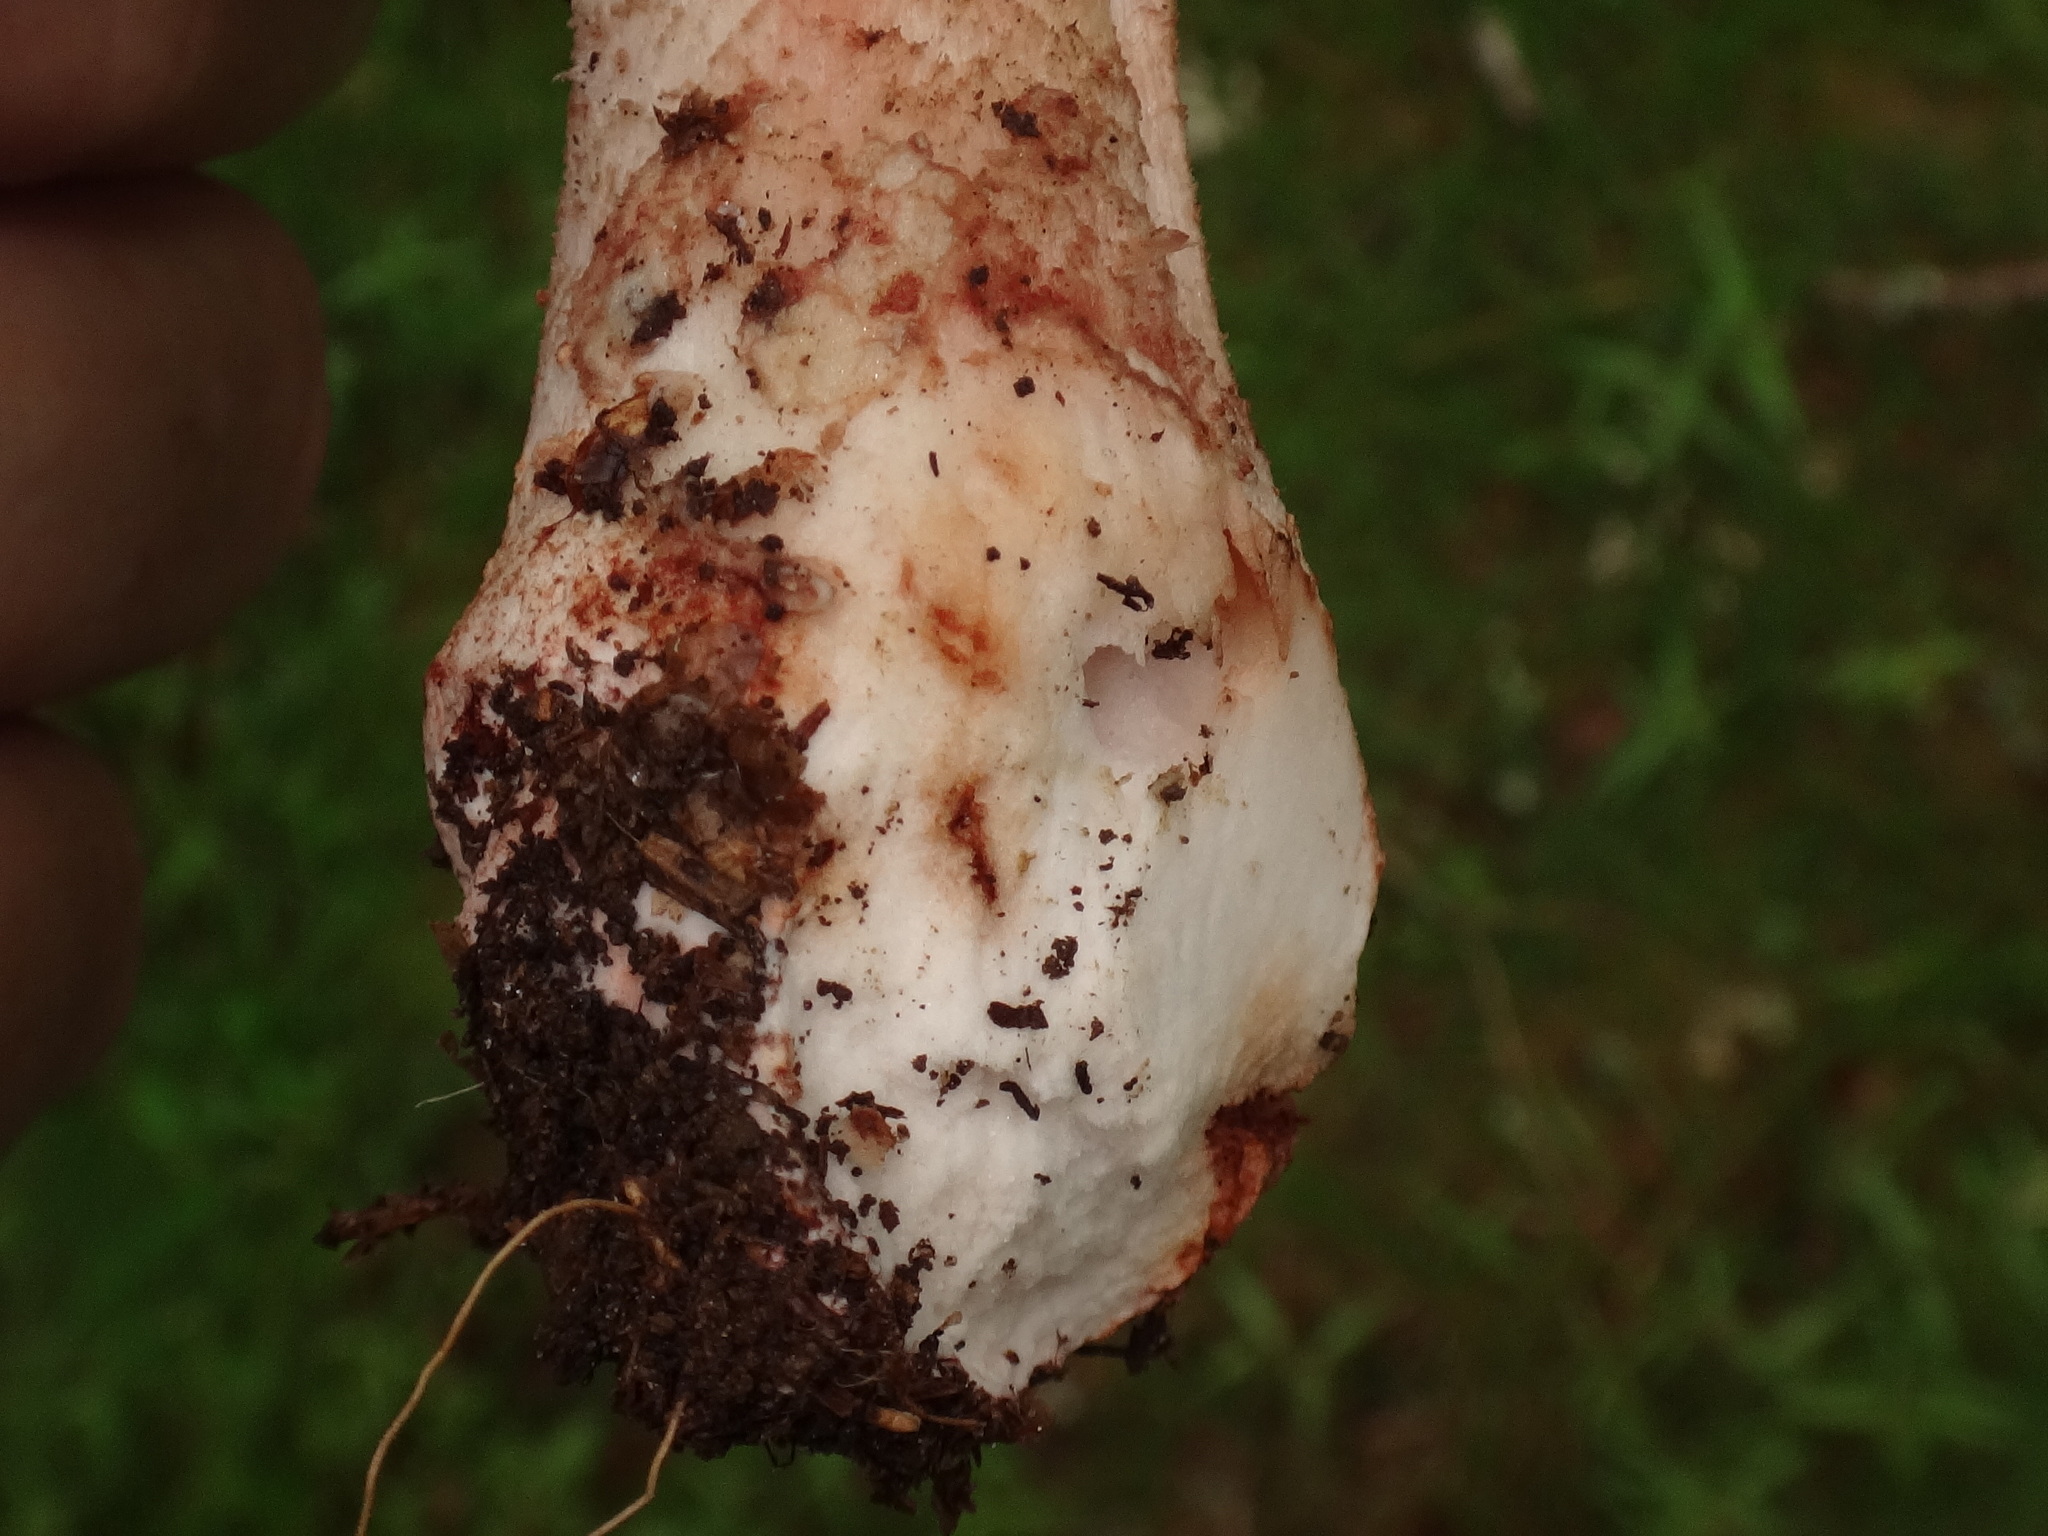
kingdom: Fungi
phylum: Basidiomycota
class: Agaricomycetes
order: Agaricales
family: Amanitaceae
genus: Amanita
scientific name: Amanita rubescens
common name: Blusher
